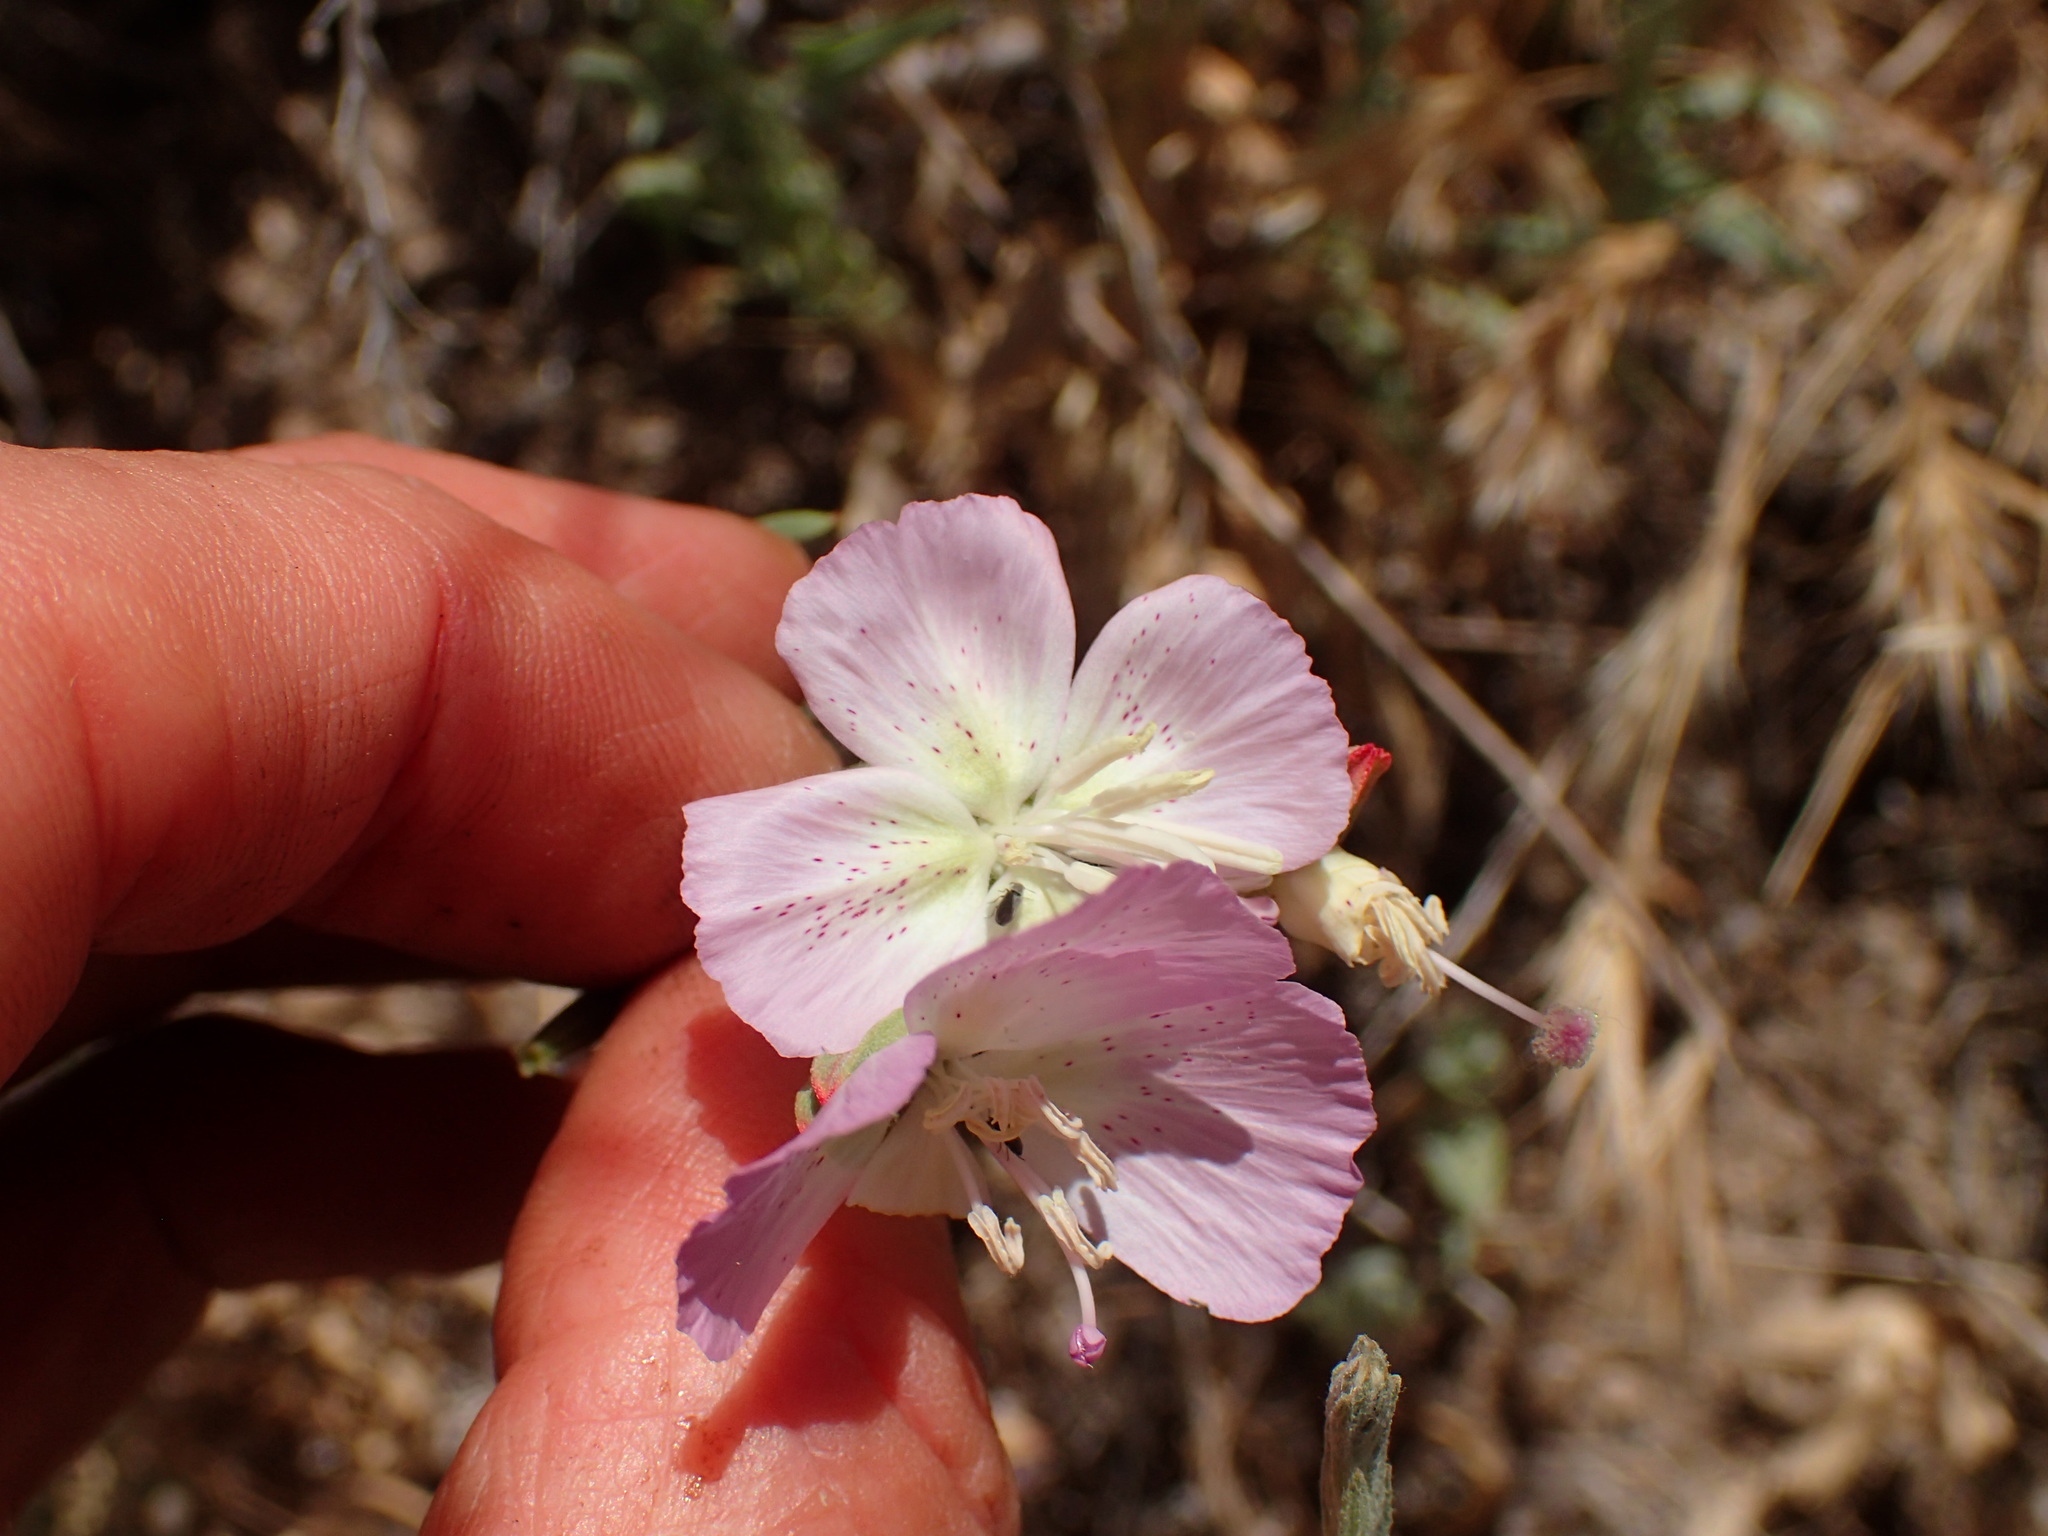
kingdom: Plantae
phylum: Tracheophyta
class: Magnoliopsida
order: Myrtales
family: Onagraceae
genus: Clarkia
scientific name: Clarkia bottae
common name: Punch-bowl godetia
